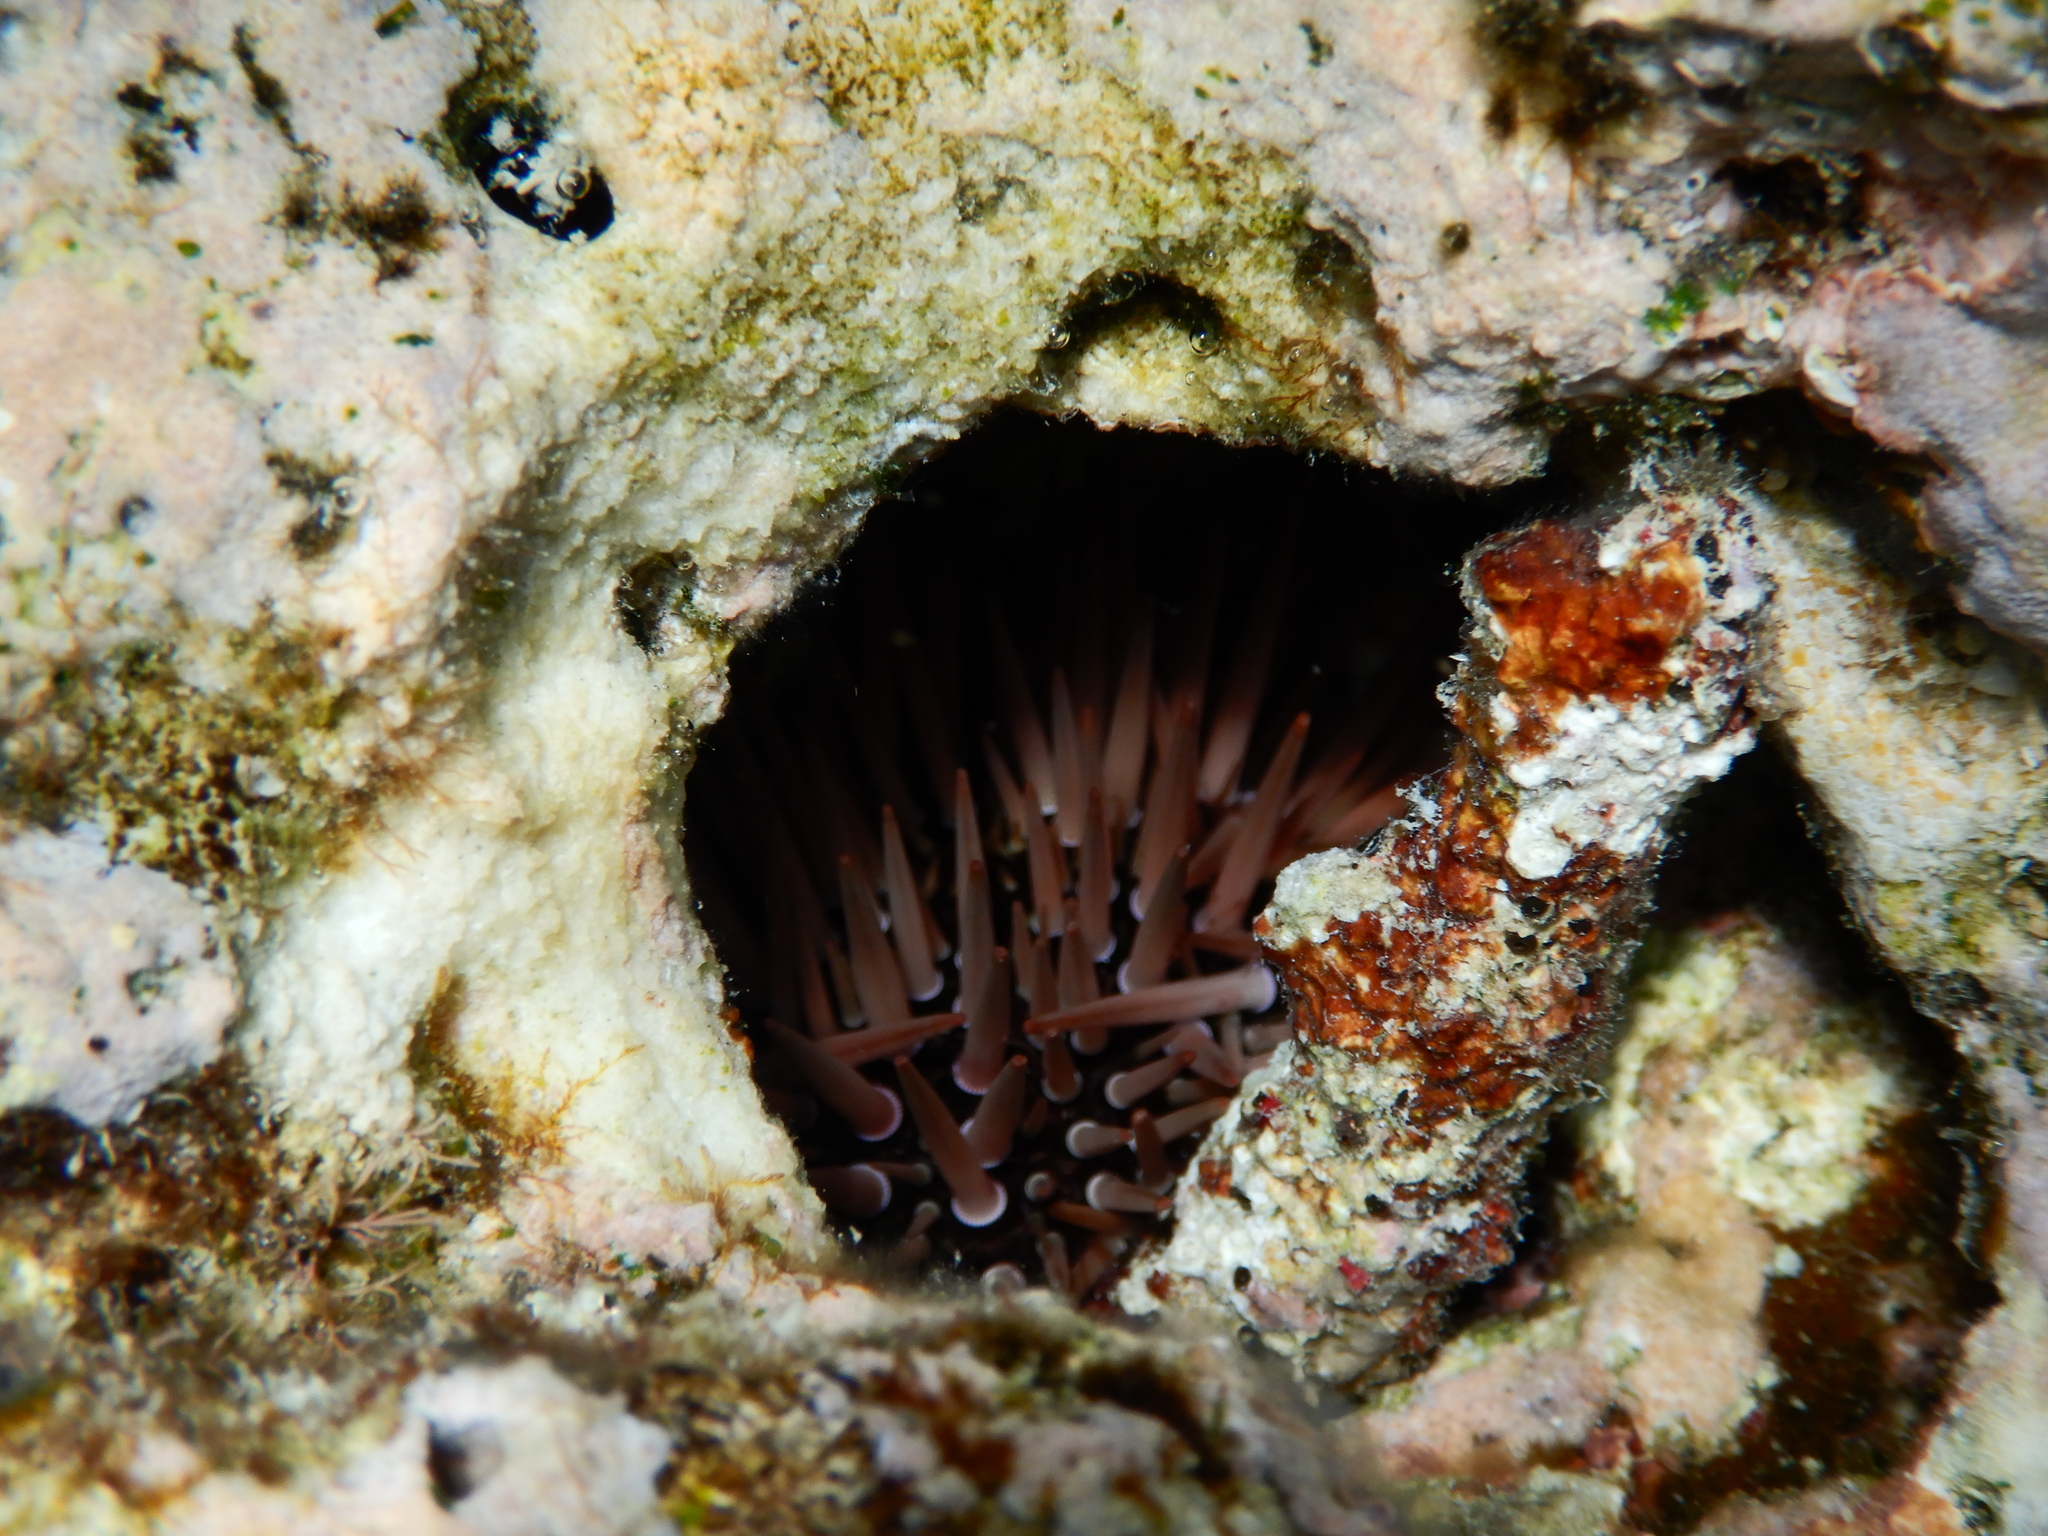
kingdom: Animalia
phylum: Echinodermata
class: Echinoidea
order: Camarodonta
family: Echinometridae
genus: Echinometra
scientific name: Echinometra mathaei
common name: Rock-boring urchin
